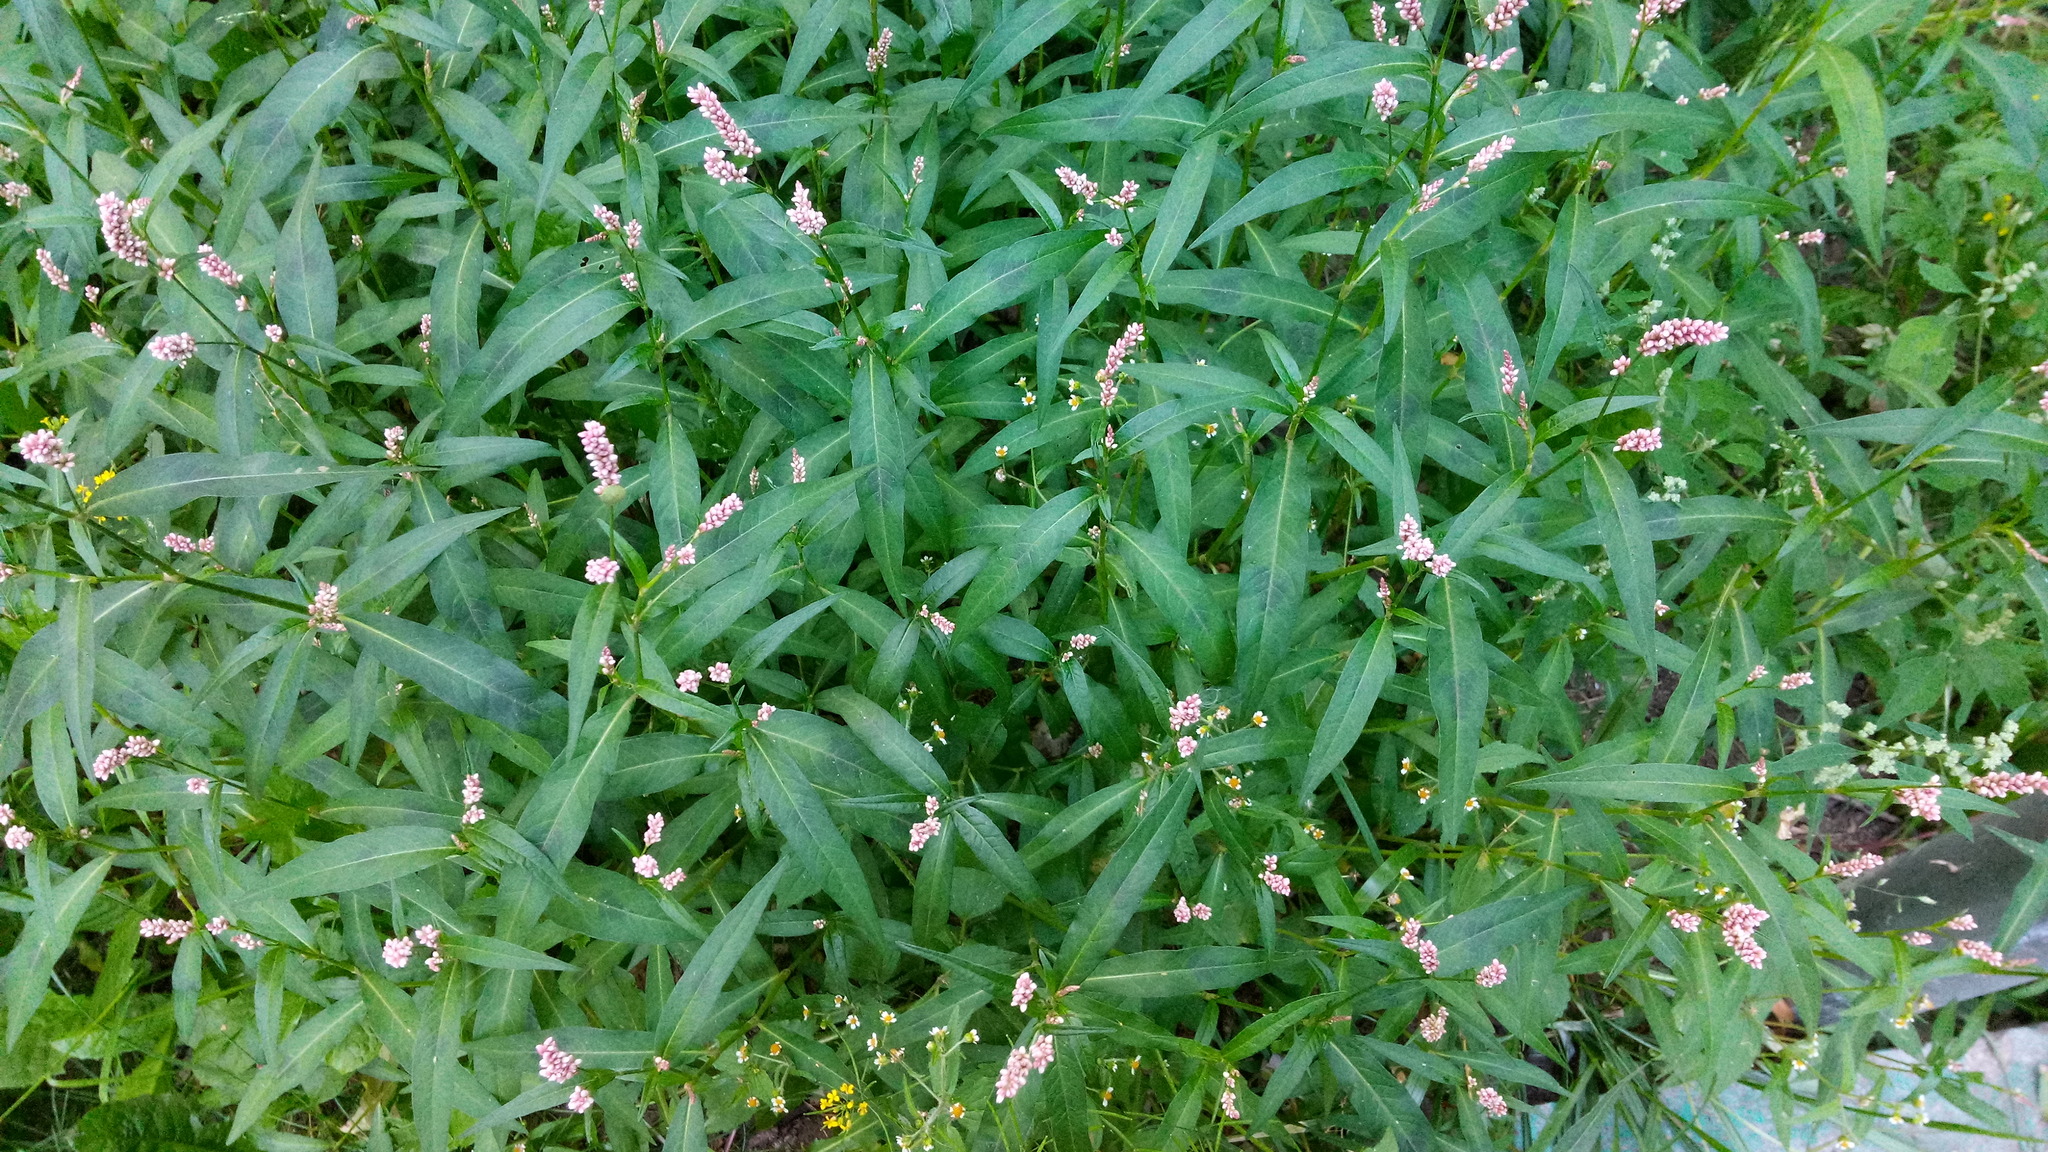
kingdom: Plantae
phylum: Tracheophyta
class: Magnoliopsida
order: Caryophyllales
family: Polygonaceae
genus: Persicaria
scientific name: Persicaria maculosa
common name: Redshank
